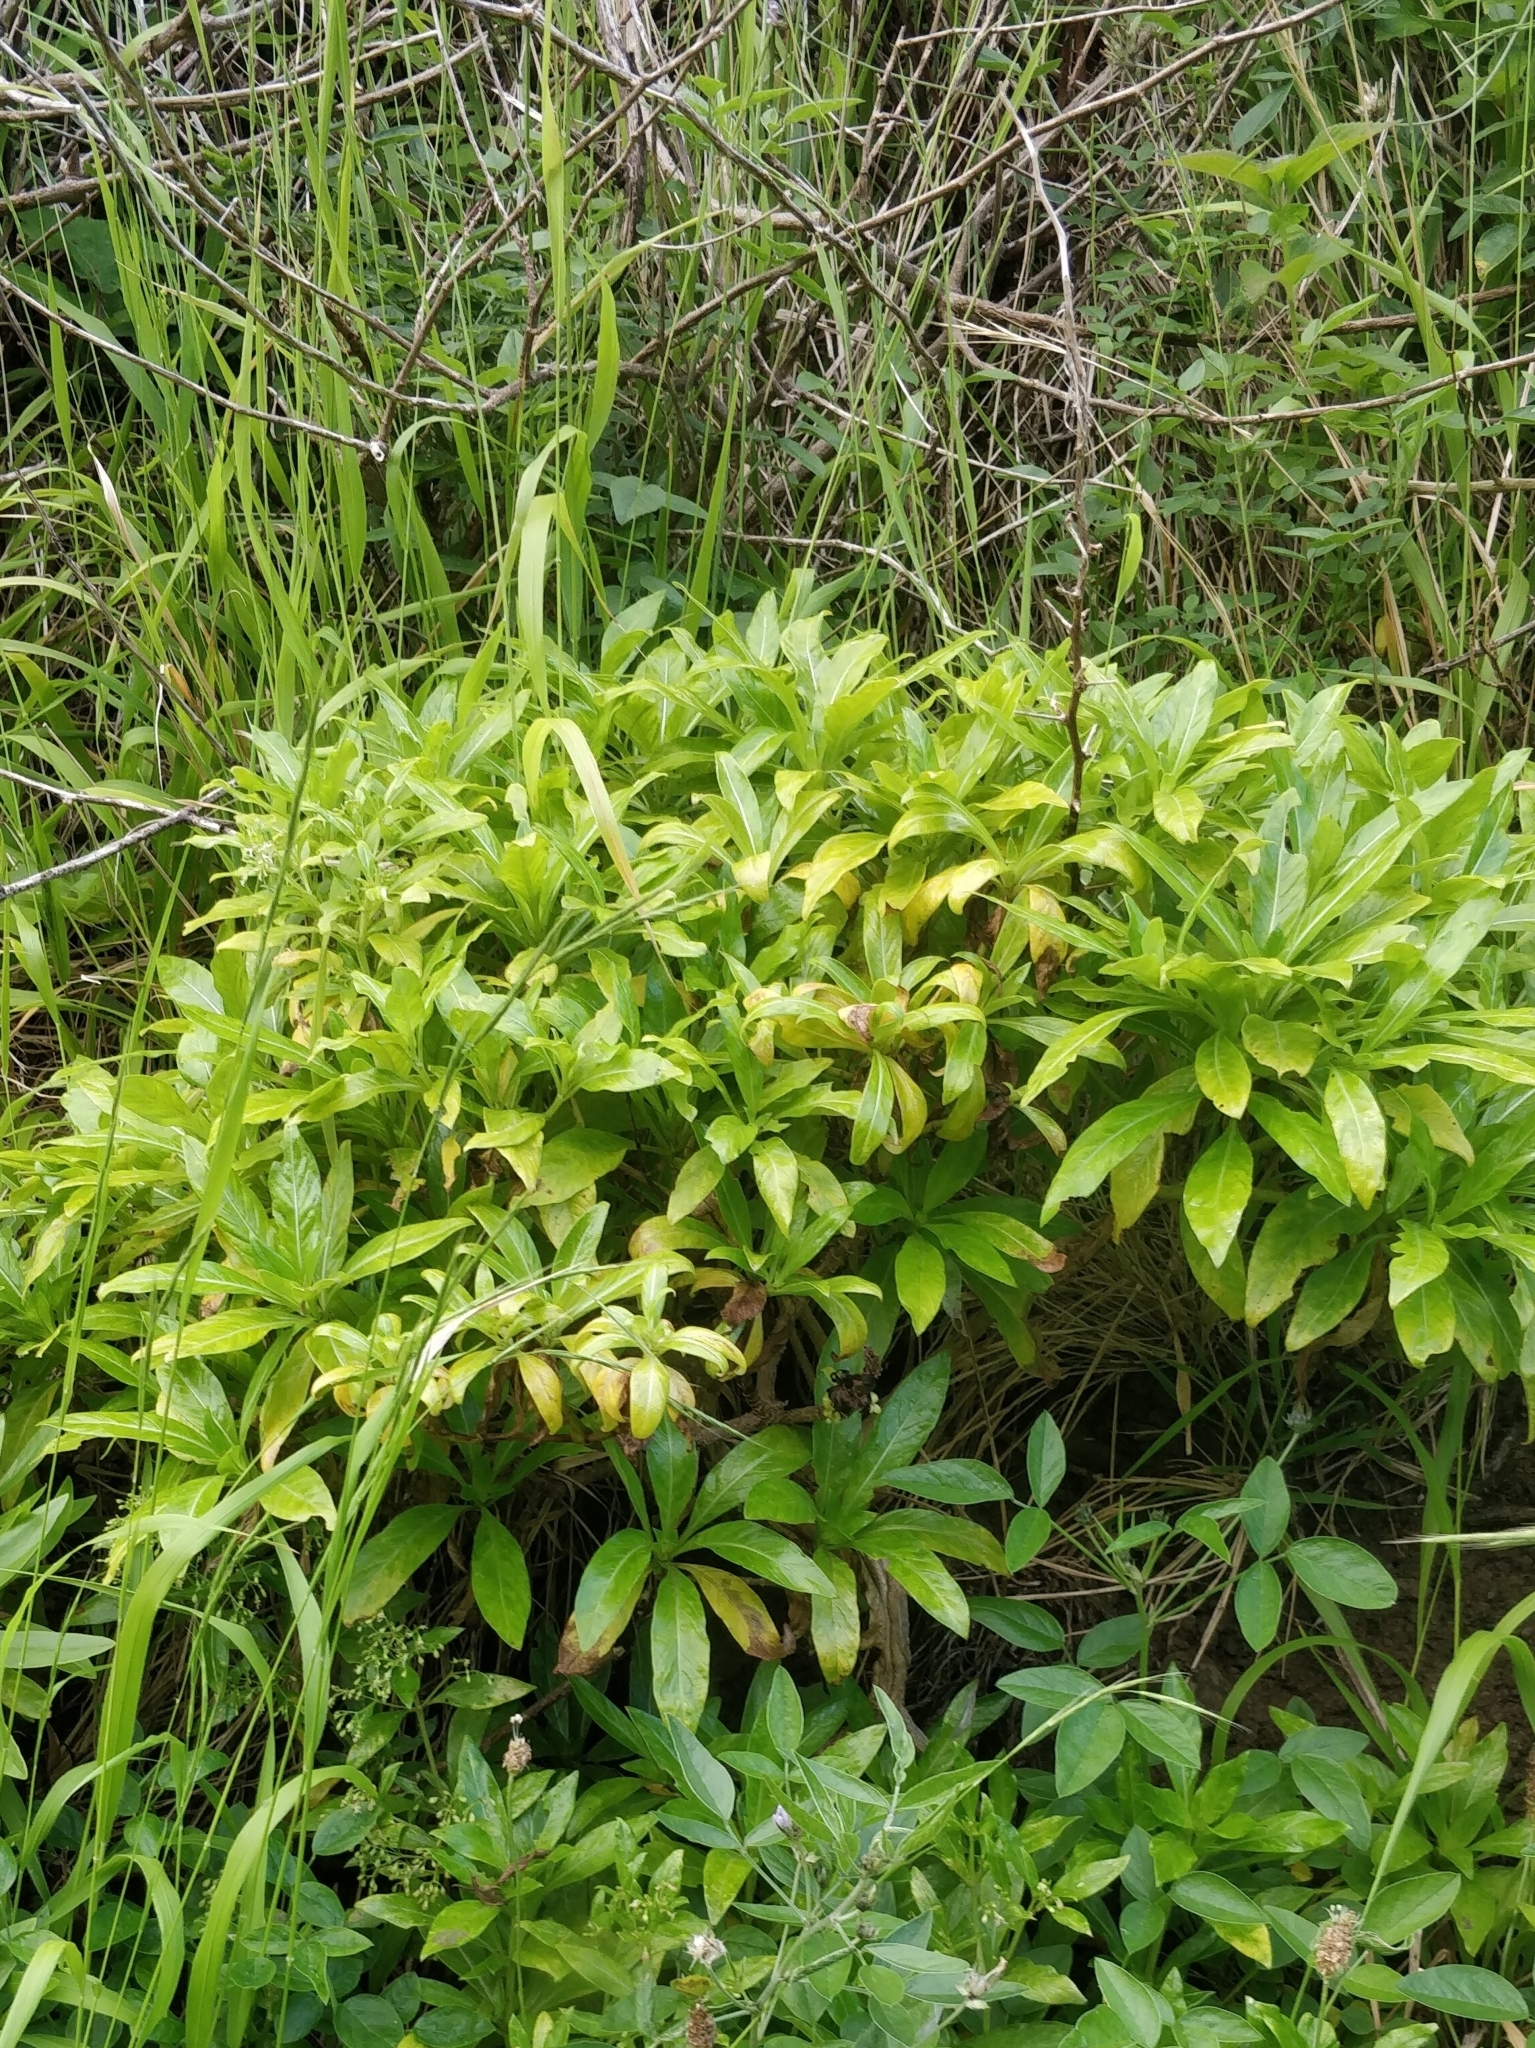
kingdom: Plantae
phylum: Tracheophyta
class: Magnoliopsida
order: Gentianales
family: Rubiaceae
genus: Phyllis
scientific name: Phyllis nobla
